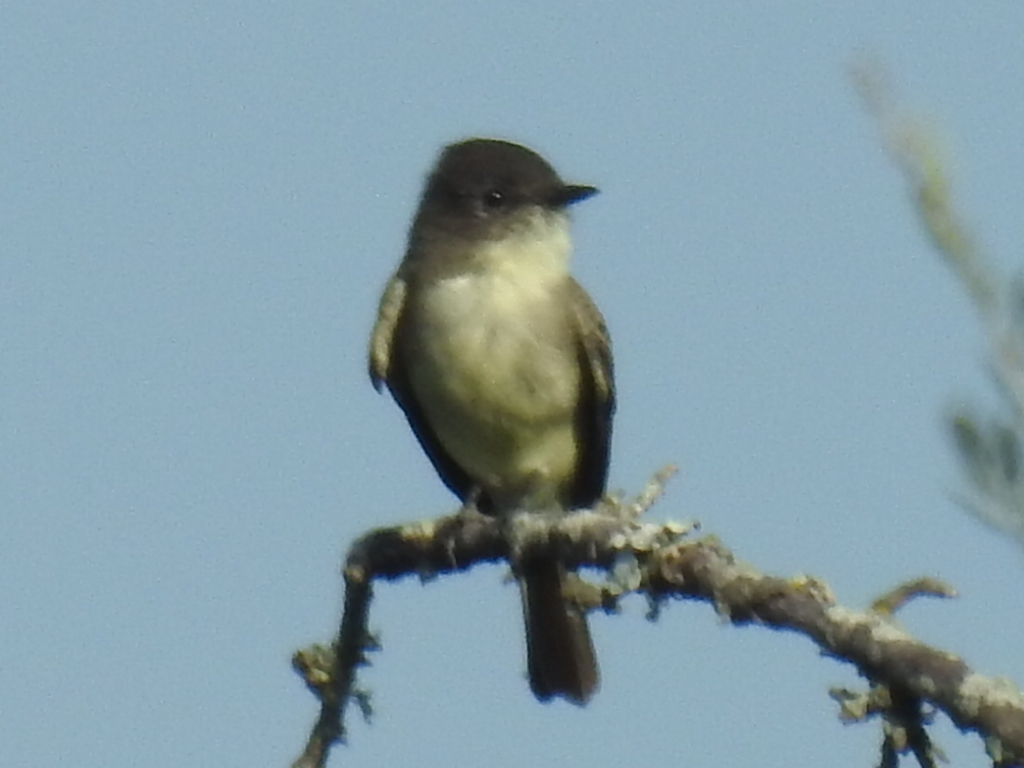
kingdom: Animalia
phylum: Chordata
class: Aves
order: Passeriformes
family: Tyrannidae
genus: Sayornis
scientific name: Sayornis phoebe
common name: Eastern phoebe
